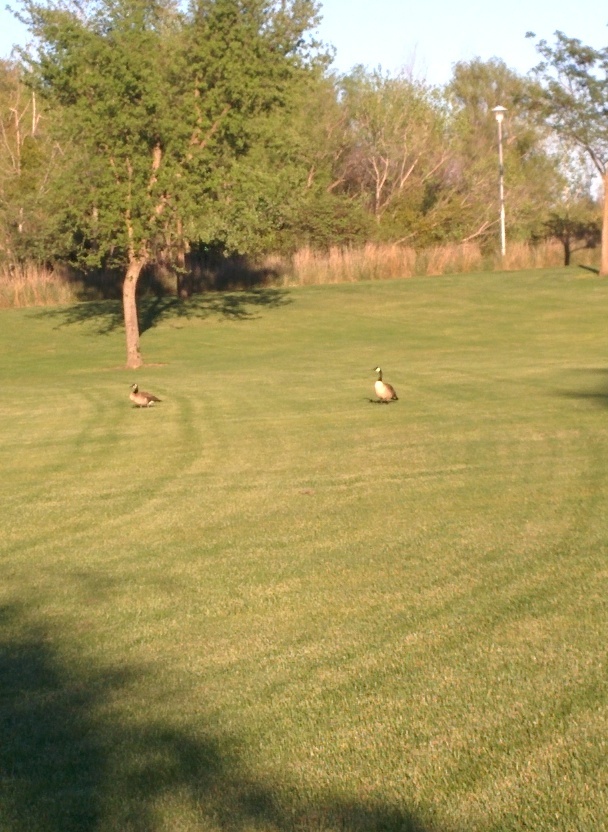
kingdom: Animalia
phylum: Chordata
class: Aves
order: Anseriformes
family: Anatidae
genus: Branta
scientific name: Branta canadensis
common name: Canada goose
